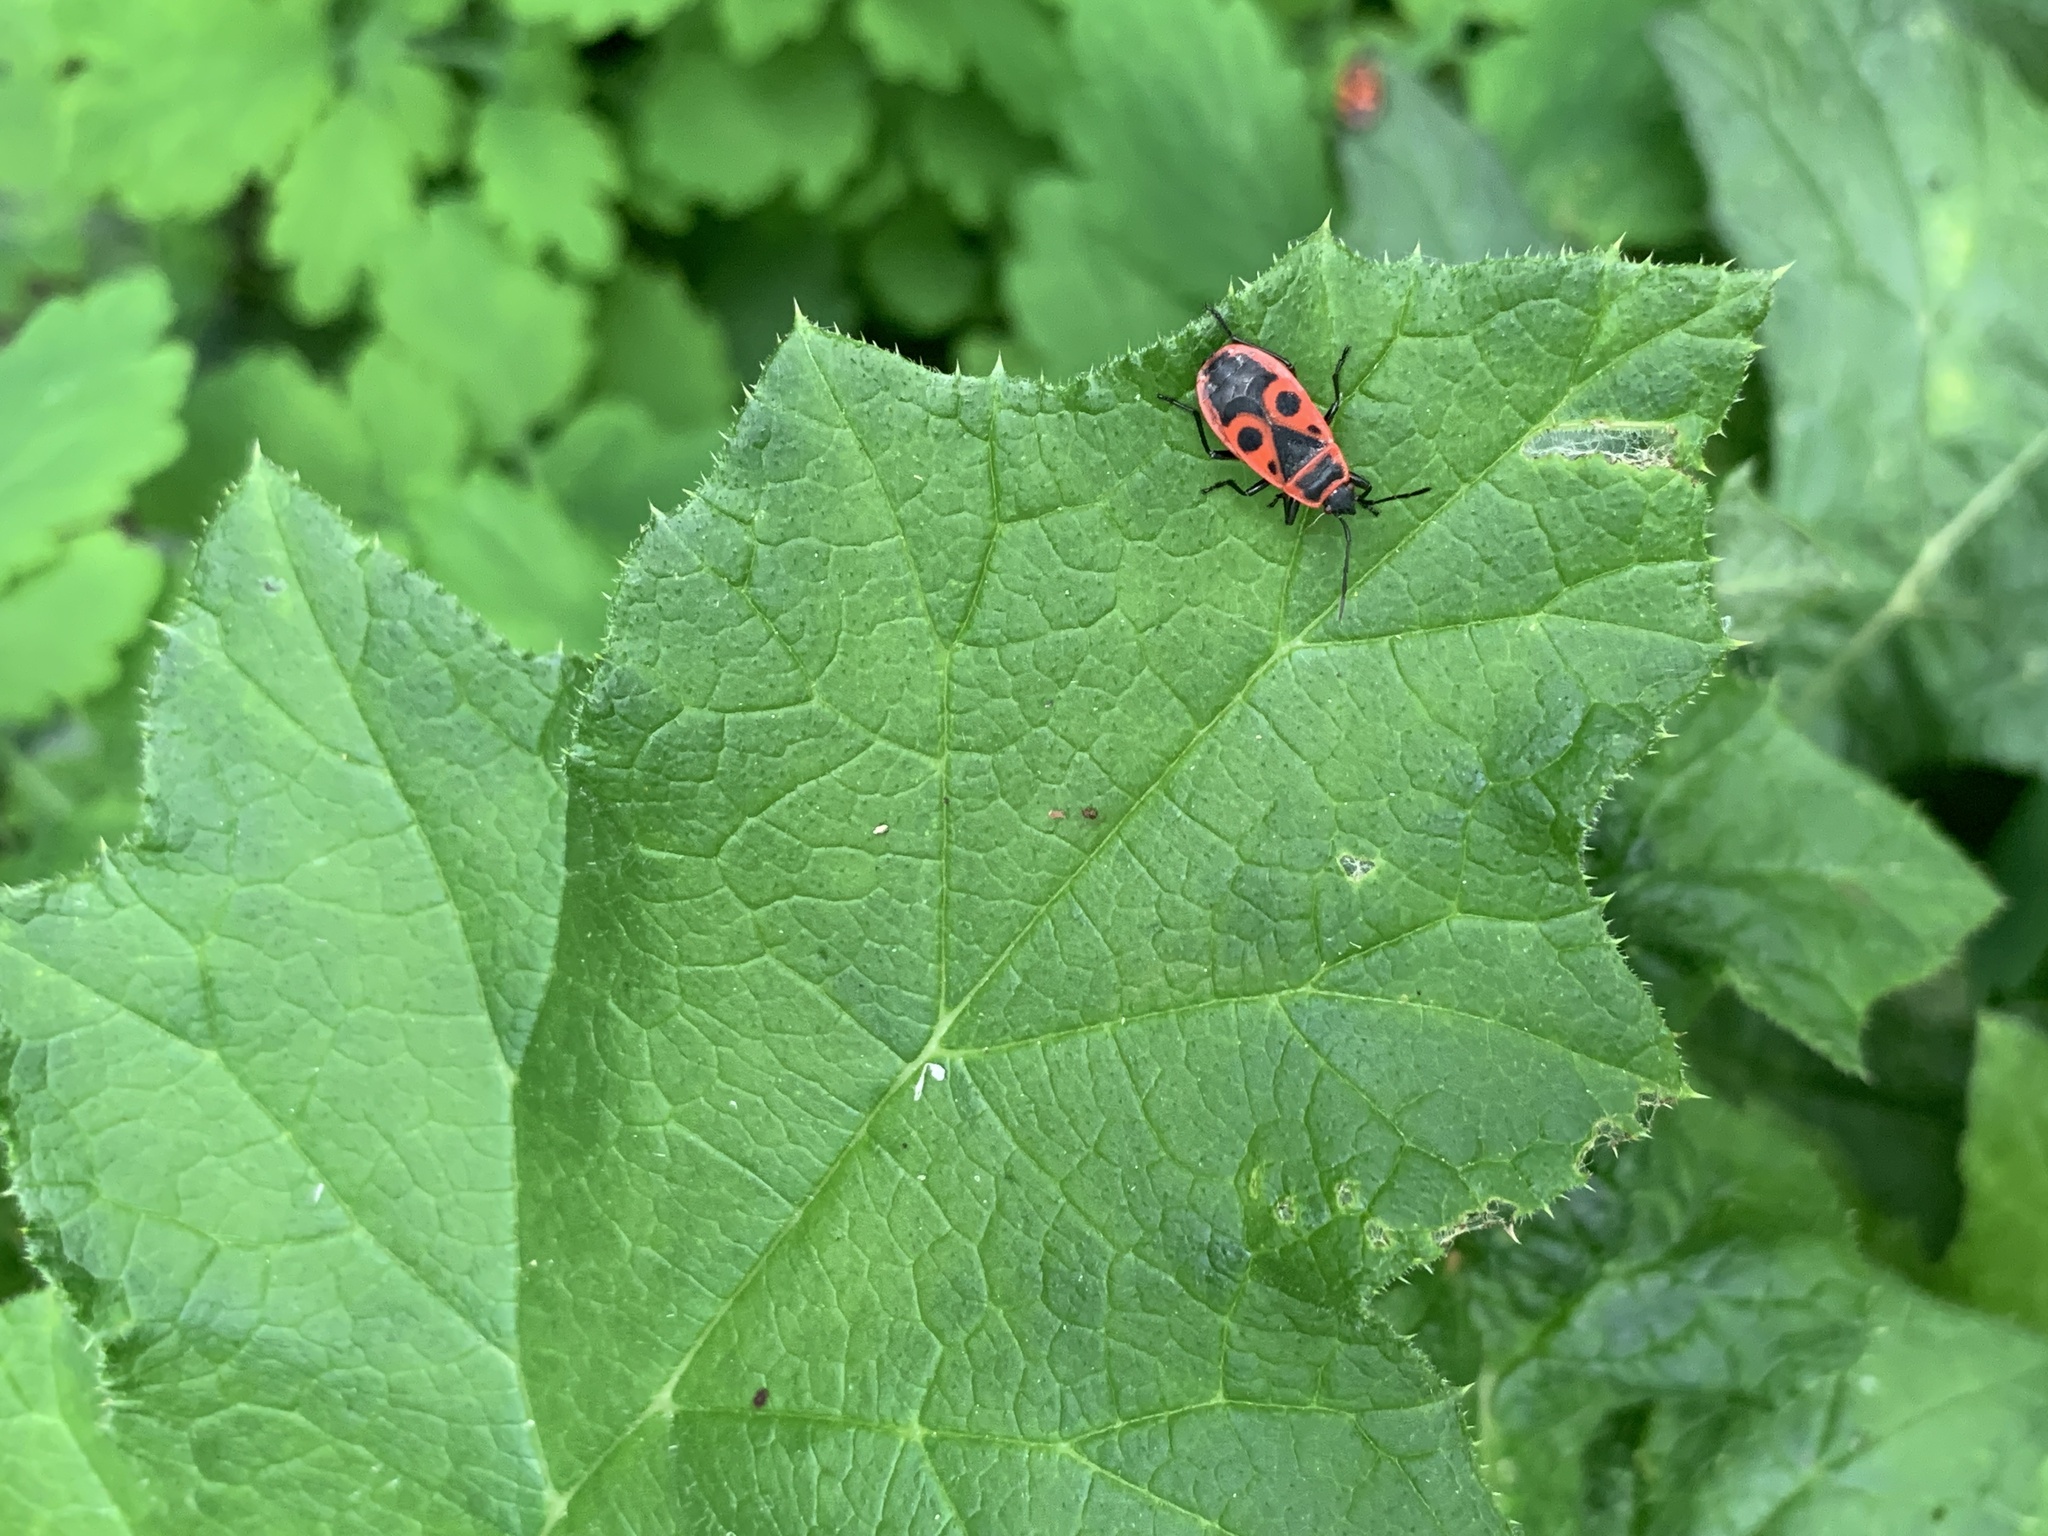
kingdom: Animalia
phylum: Arthropoda
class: Insecta
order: Hemiptera
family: Pyrrhocoridae
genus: Pyrrhocoris
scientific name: Pyrrhocoris apterus
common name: Firebug
